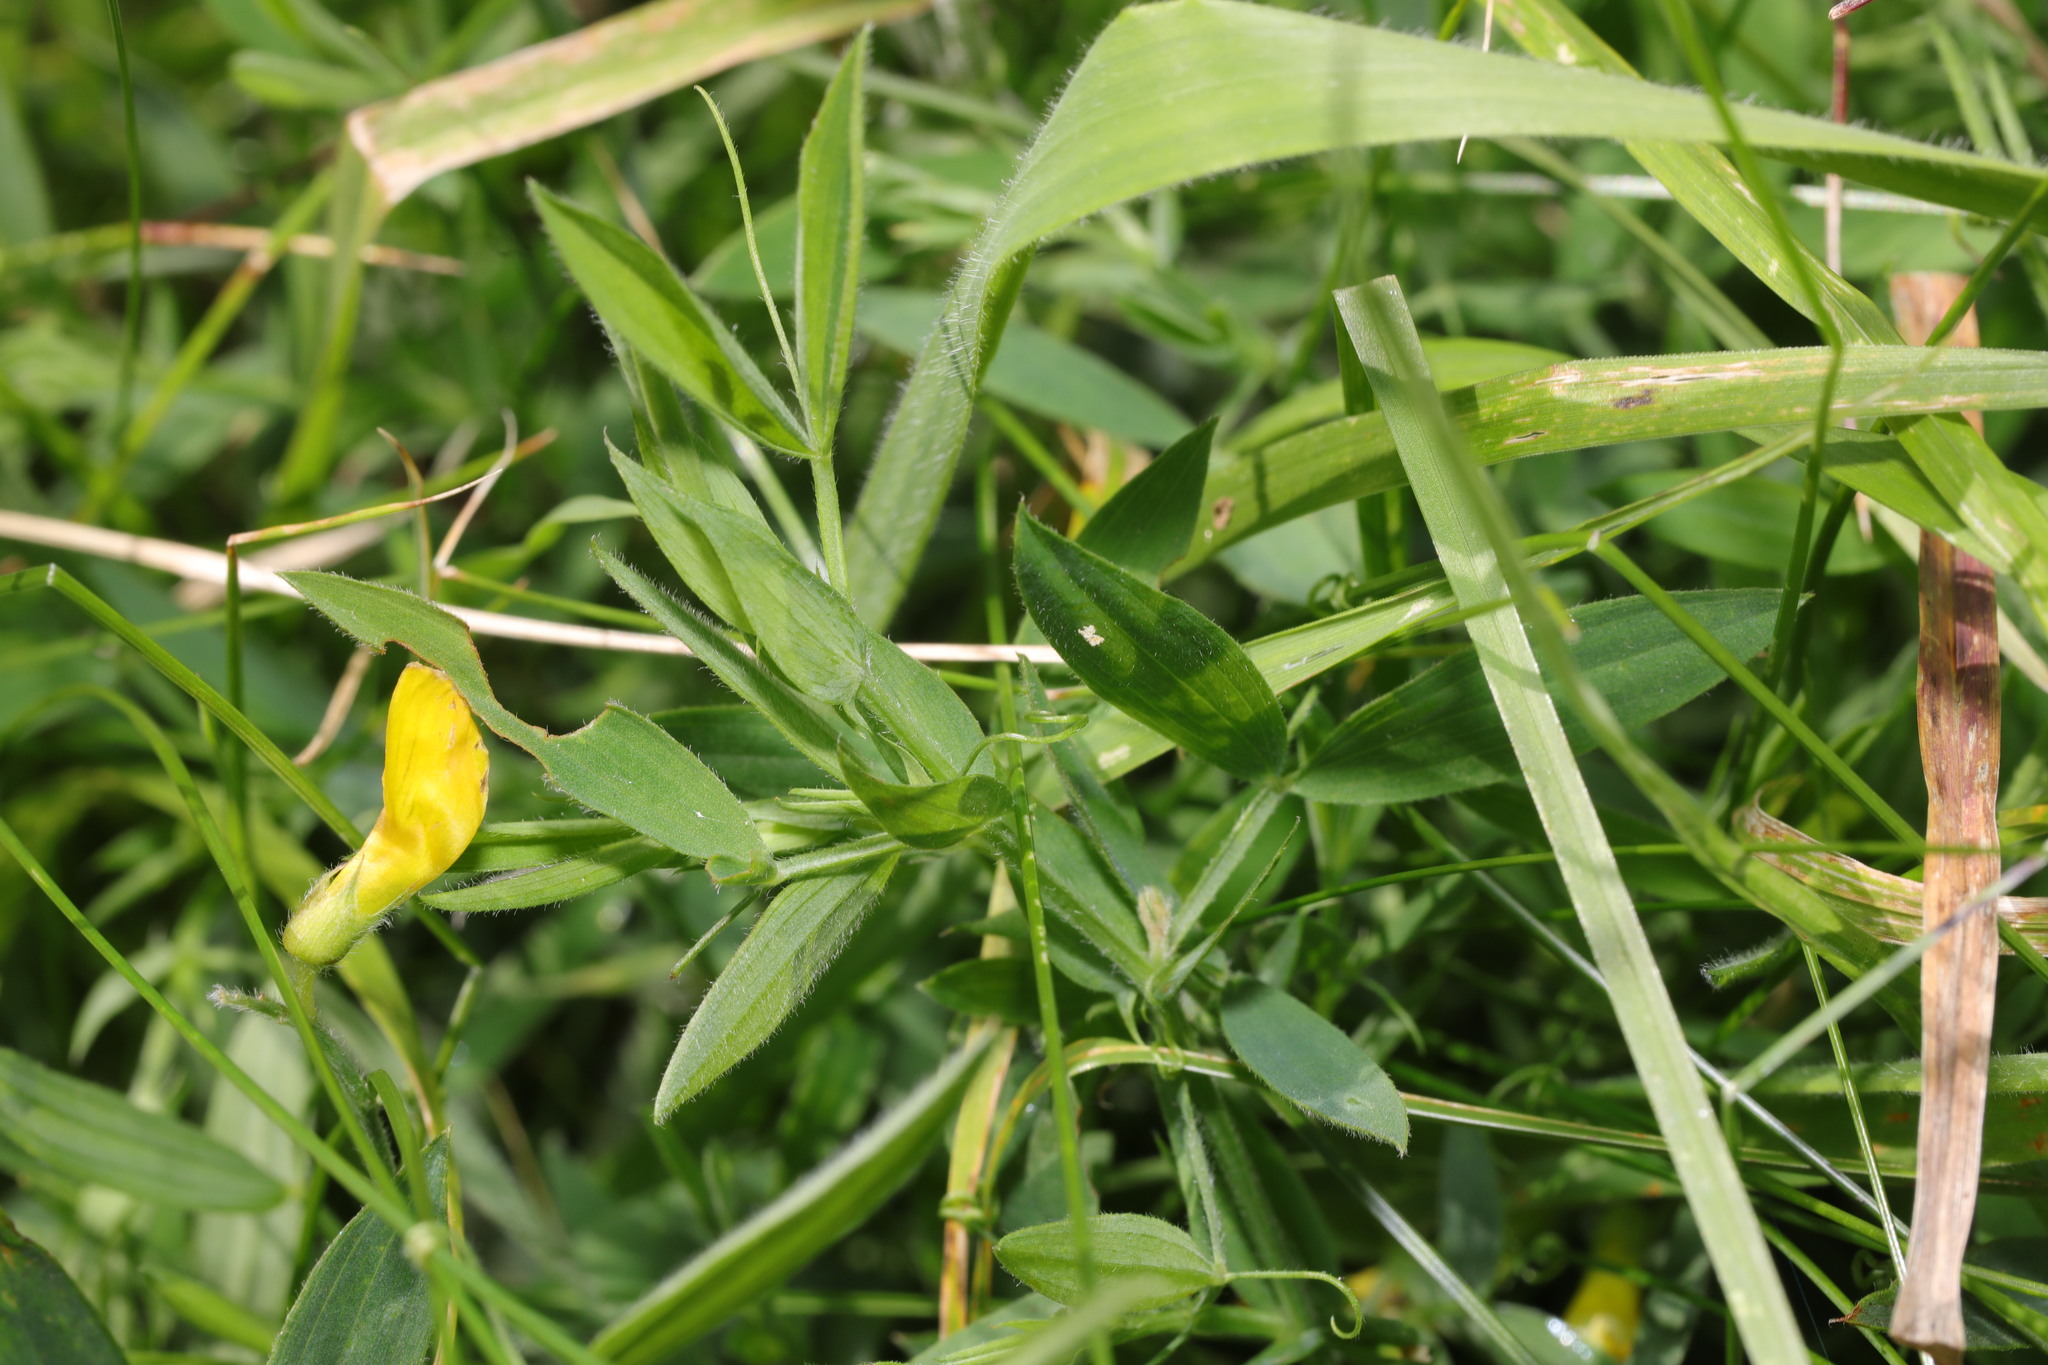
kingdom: Plantae
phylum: Tracheophyta
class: Magnoliopsida
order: Fabales
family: Fabaceae
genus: Lathyrus
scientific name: Lathyrus pratensis
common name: Meadow vetchling
